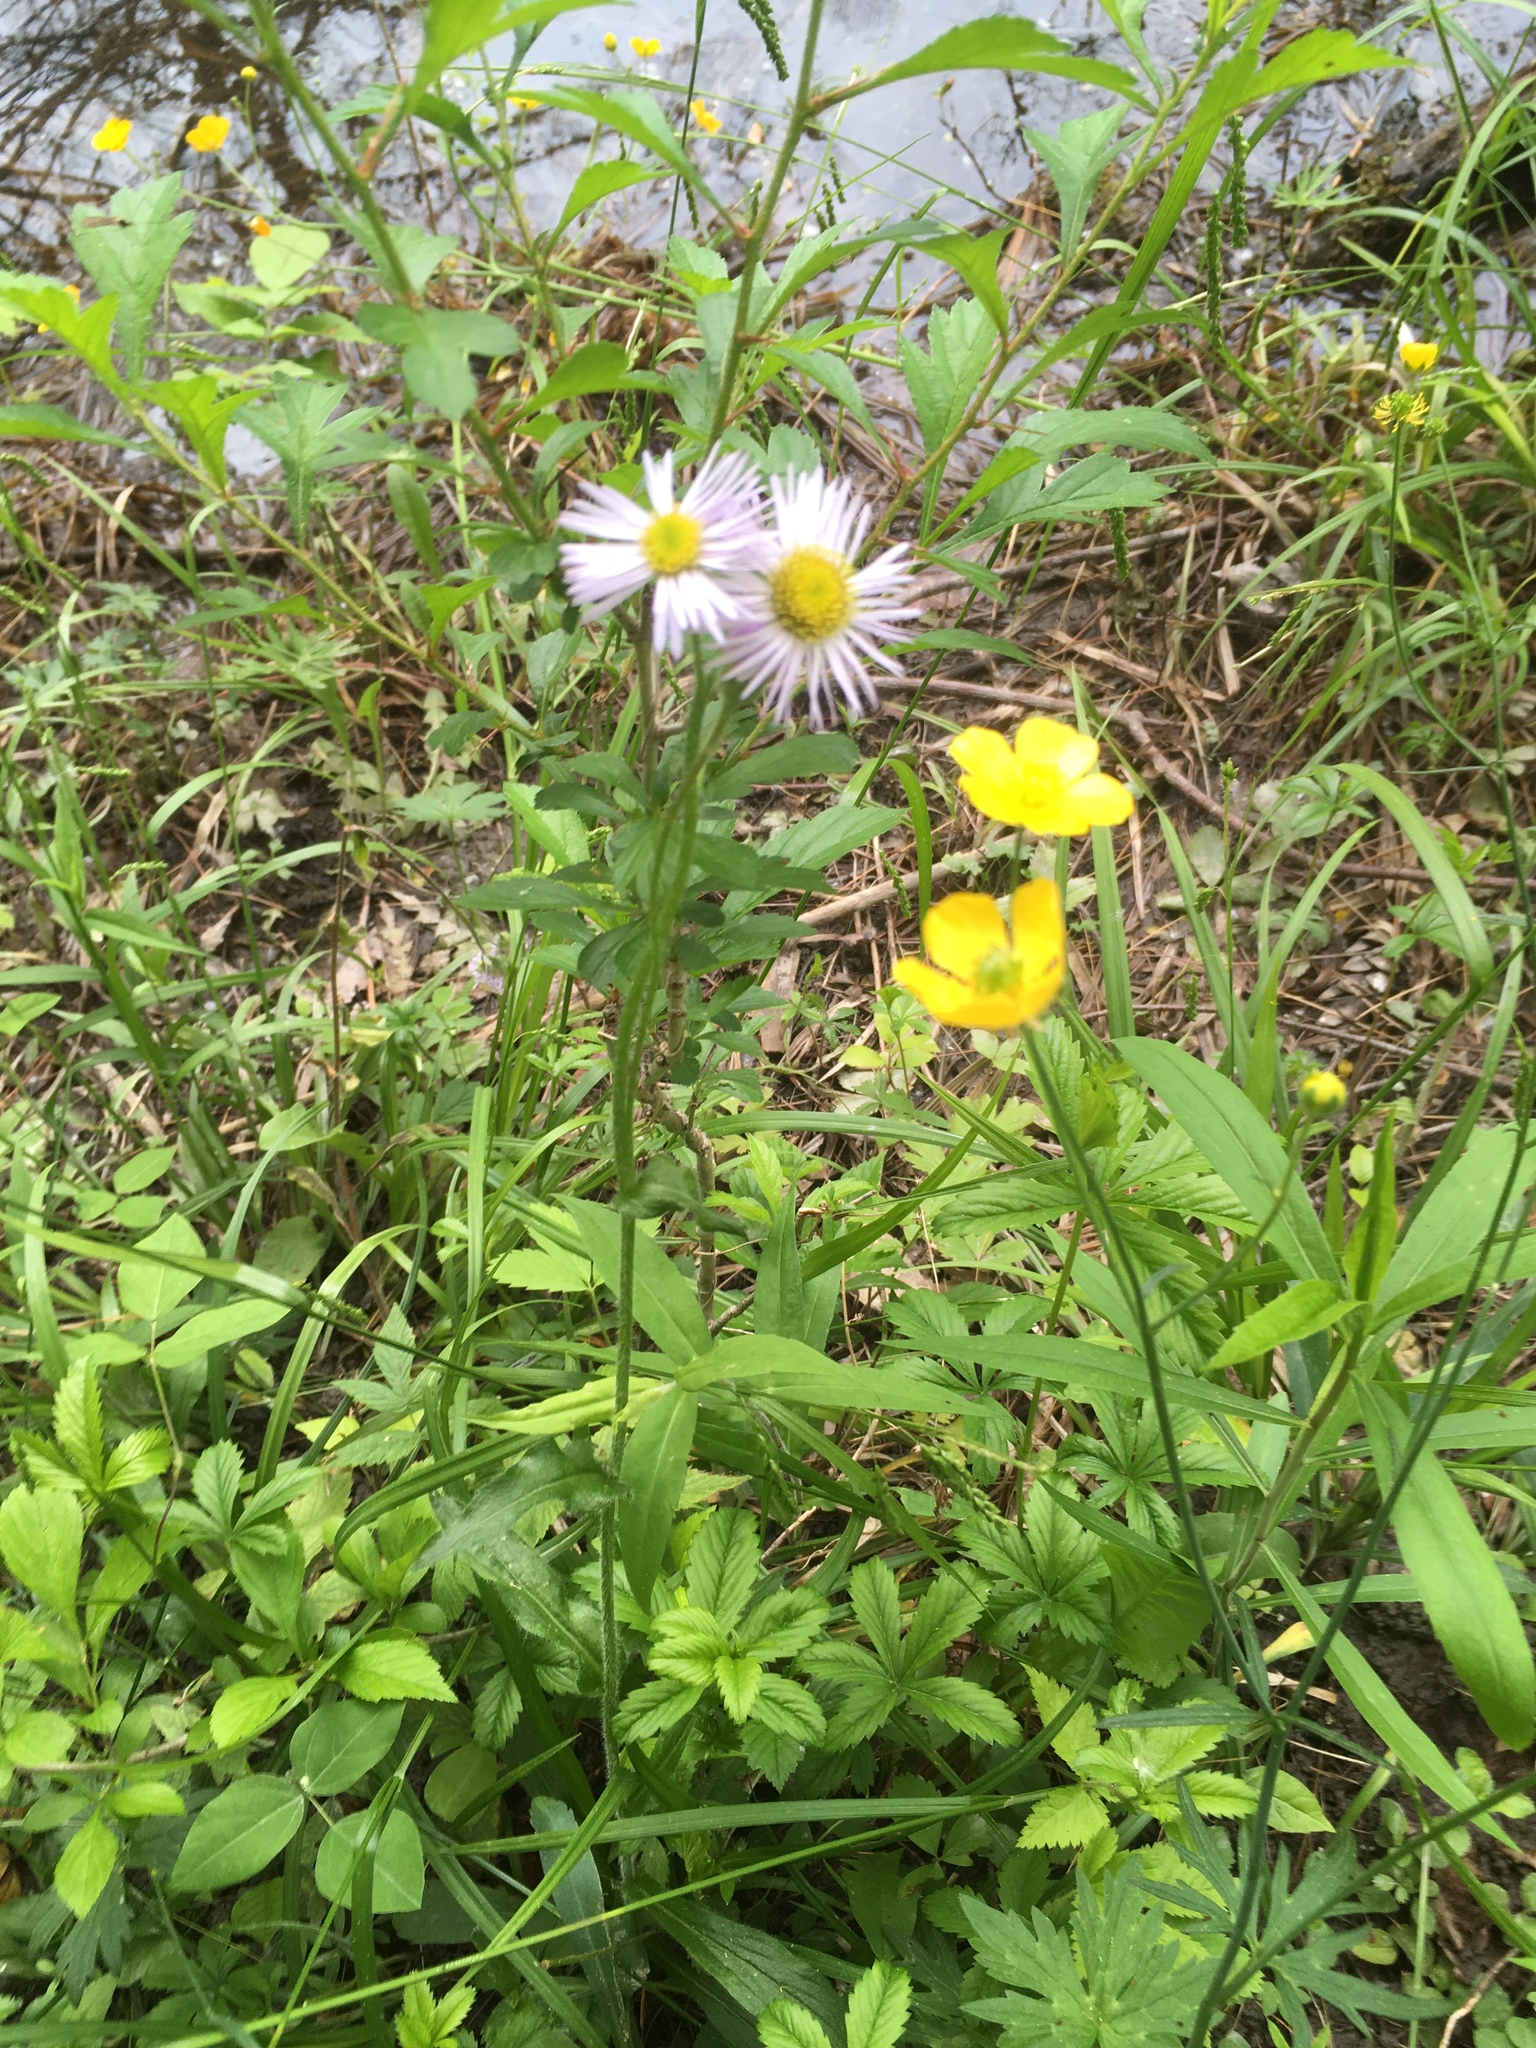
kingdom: Plantae
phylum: Tracheophyta
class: Magnoliopsida
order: Asterales
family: Asteraceae
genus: Erigeron
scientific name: Erigeron philadelphicus
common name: Robin's-plantain
